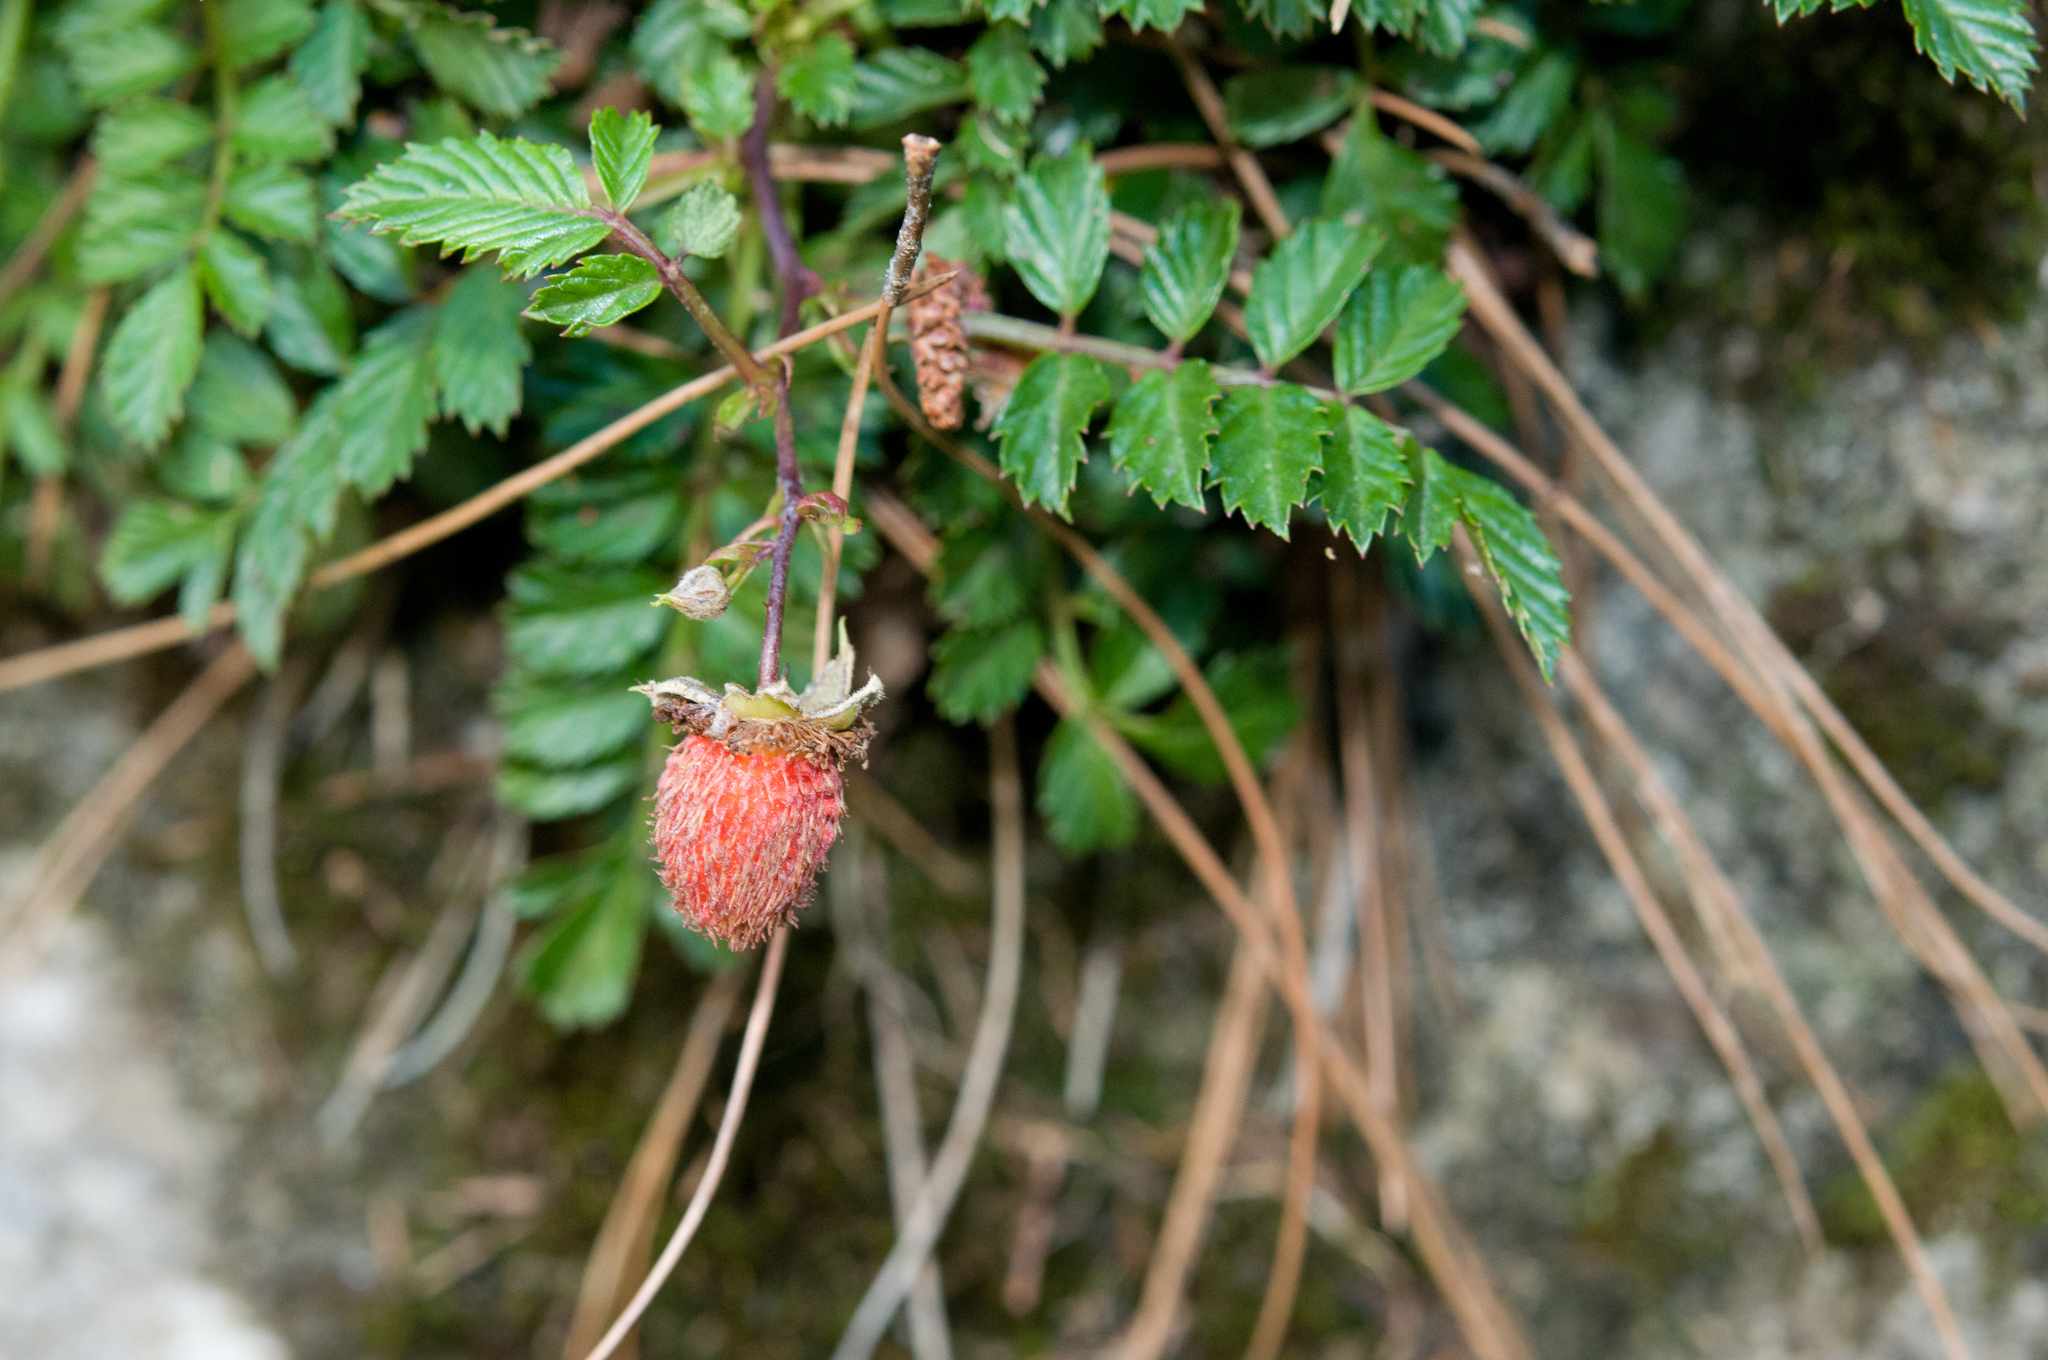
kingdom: Plantae
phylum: Tracheophyta
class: Magnoliopsida
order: Rosales
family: Rosaceae
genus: Rubus
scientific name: Rubus taiwanicola
